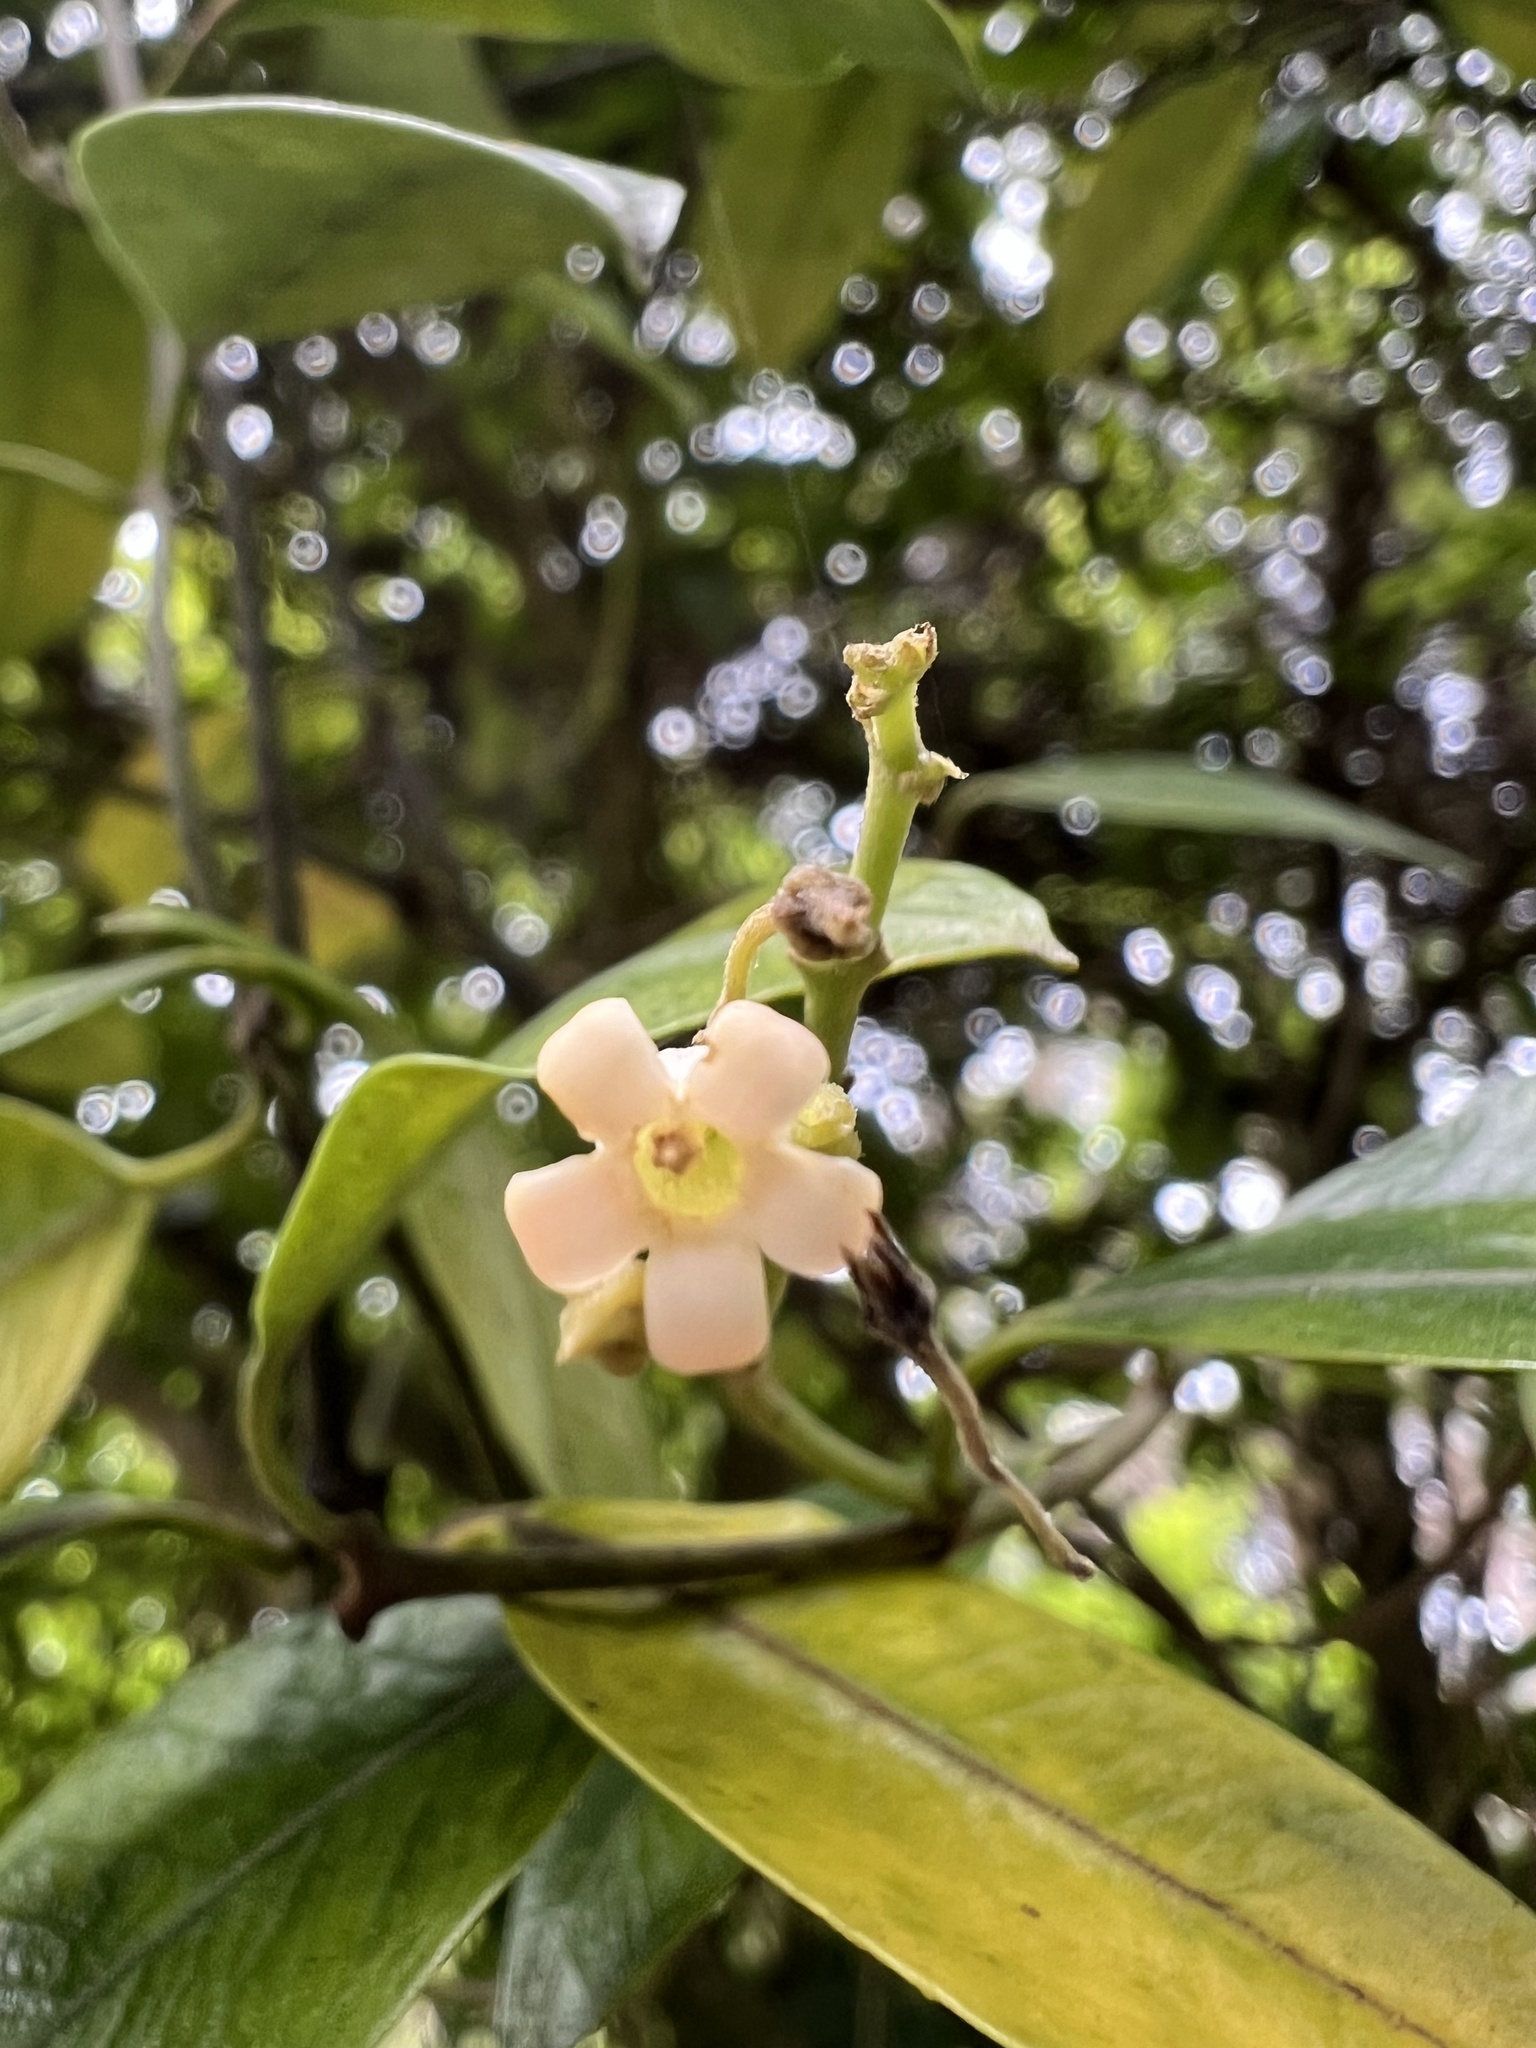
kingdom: Plantae
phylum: Tracheophyta
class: Magnoliopsida
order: Gentianales
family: Apocynaceae
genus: Parsonsia
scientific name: Parsonsia heterophylla
